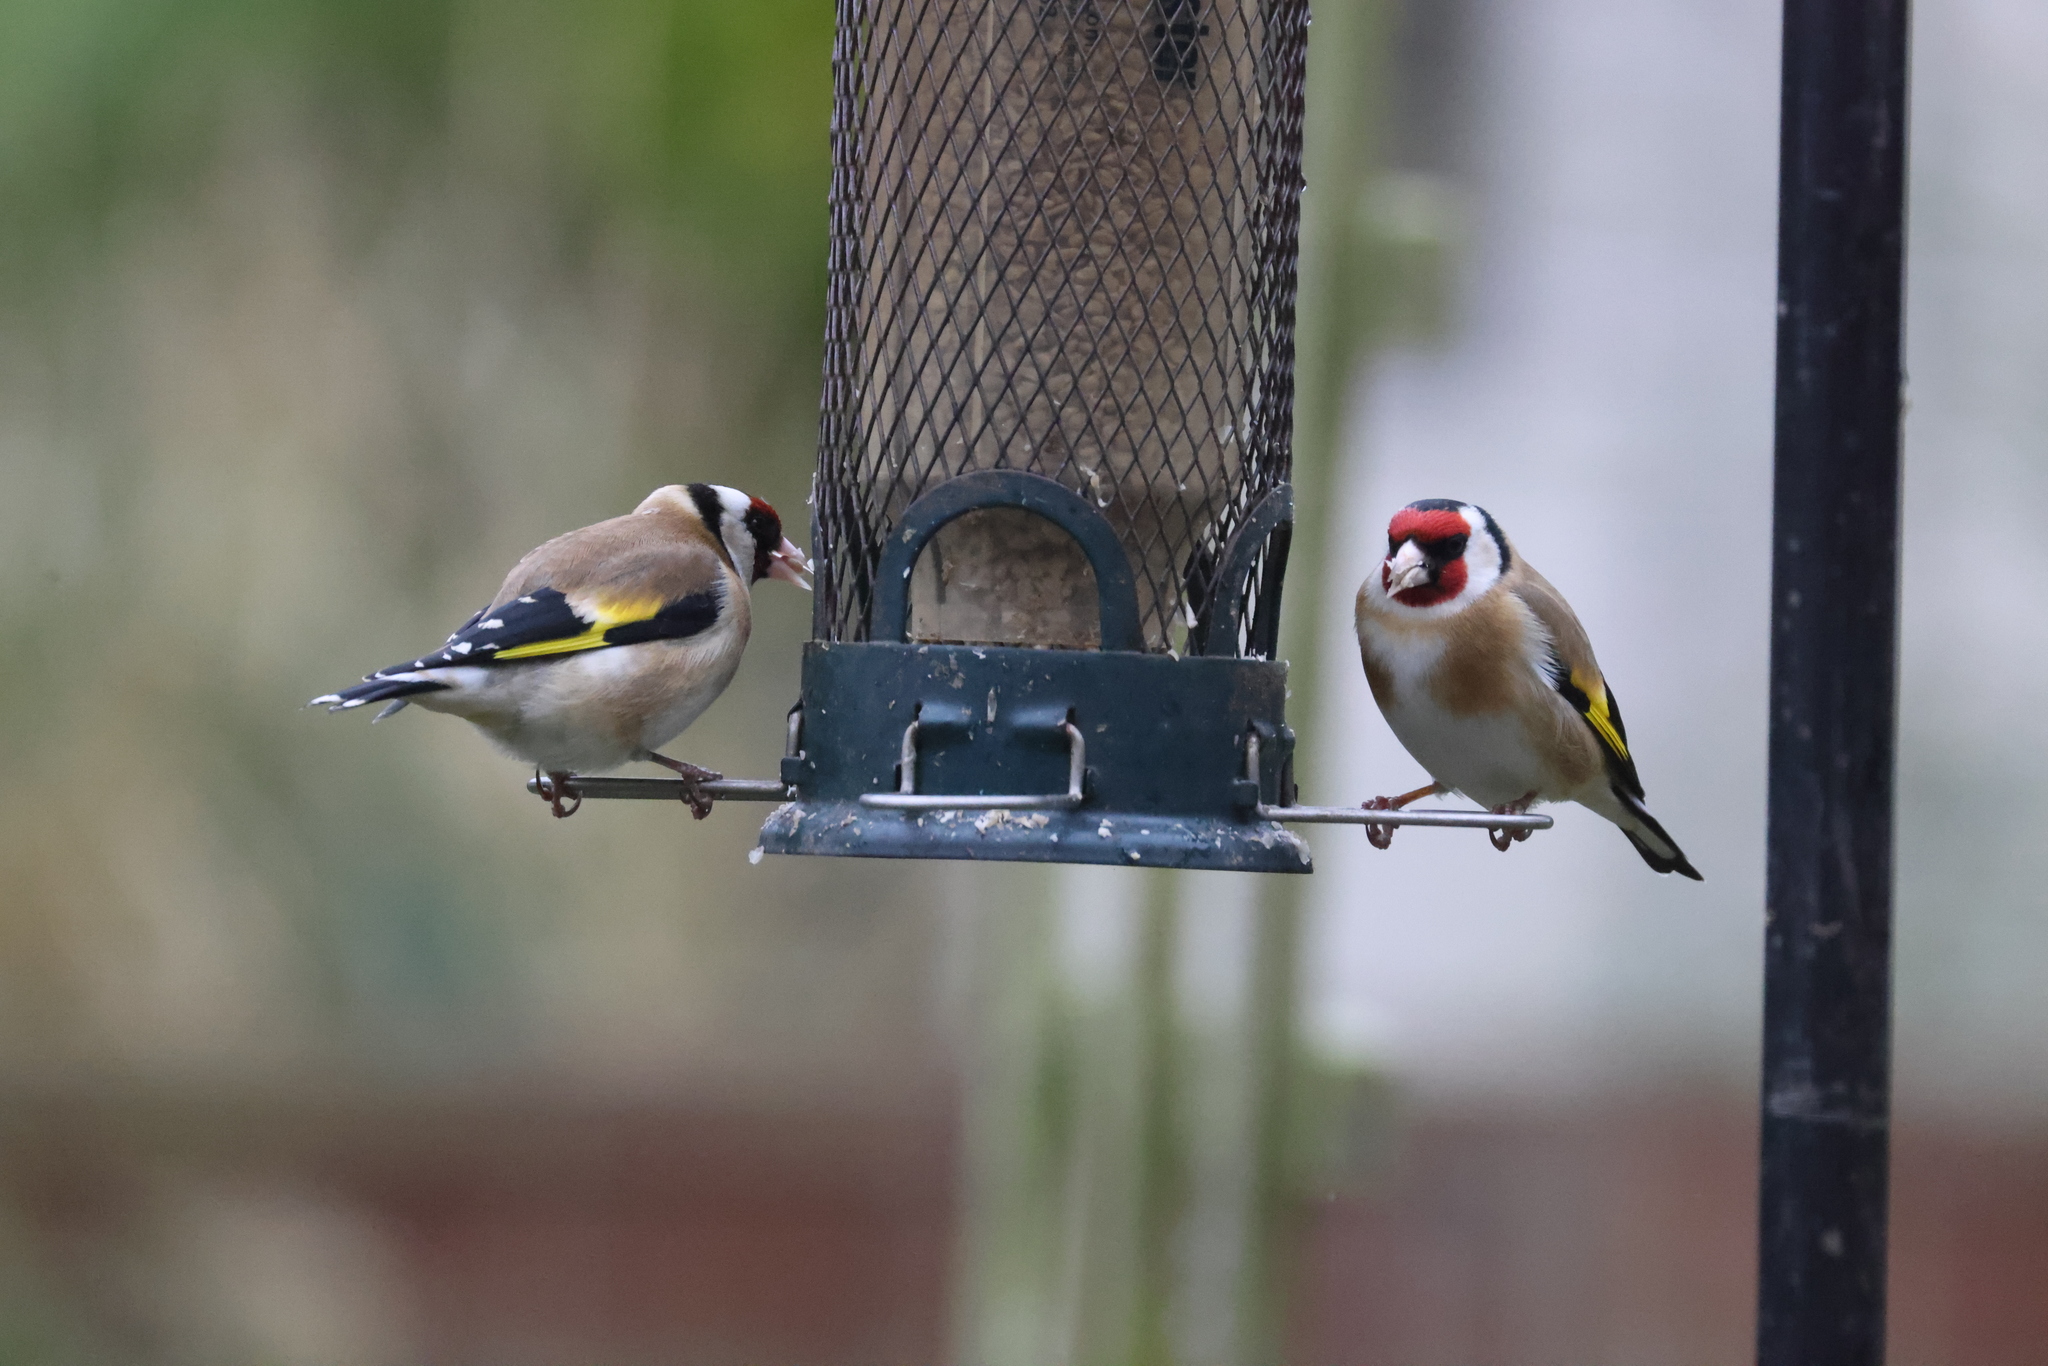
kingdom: Animalia
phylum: Chordata
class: Aves
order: Passeriformes
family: Fringillidae
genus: Carduelis
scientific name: Carduelis carduelis
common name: European goldfinch
